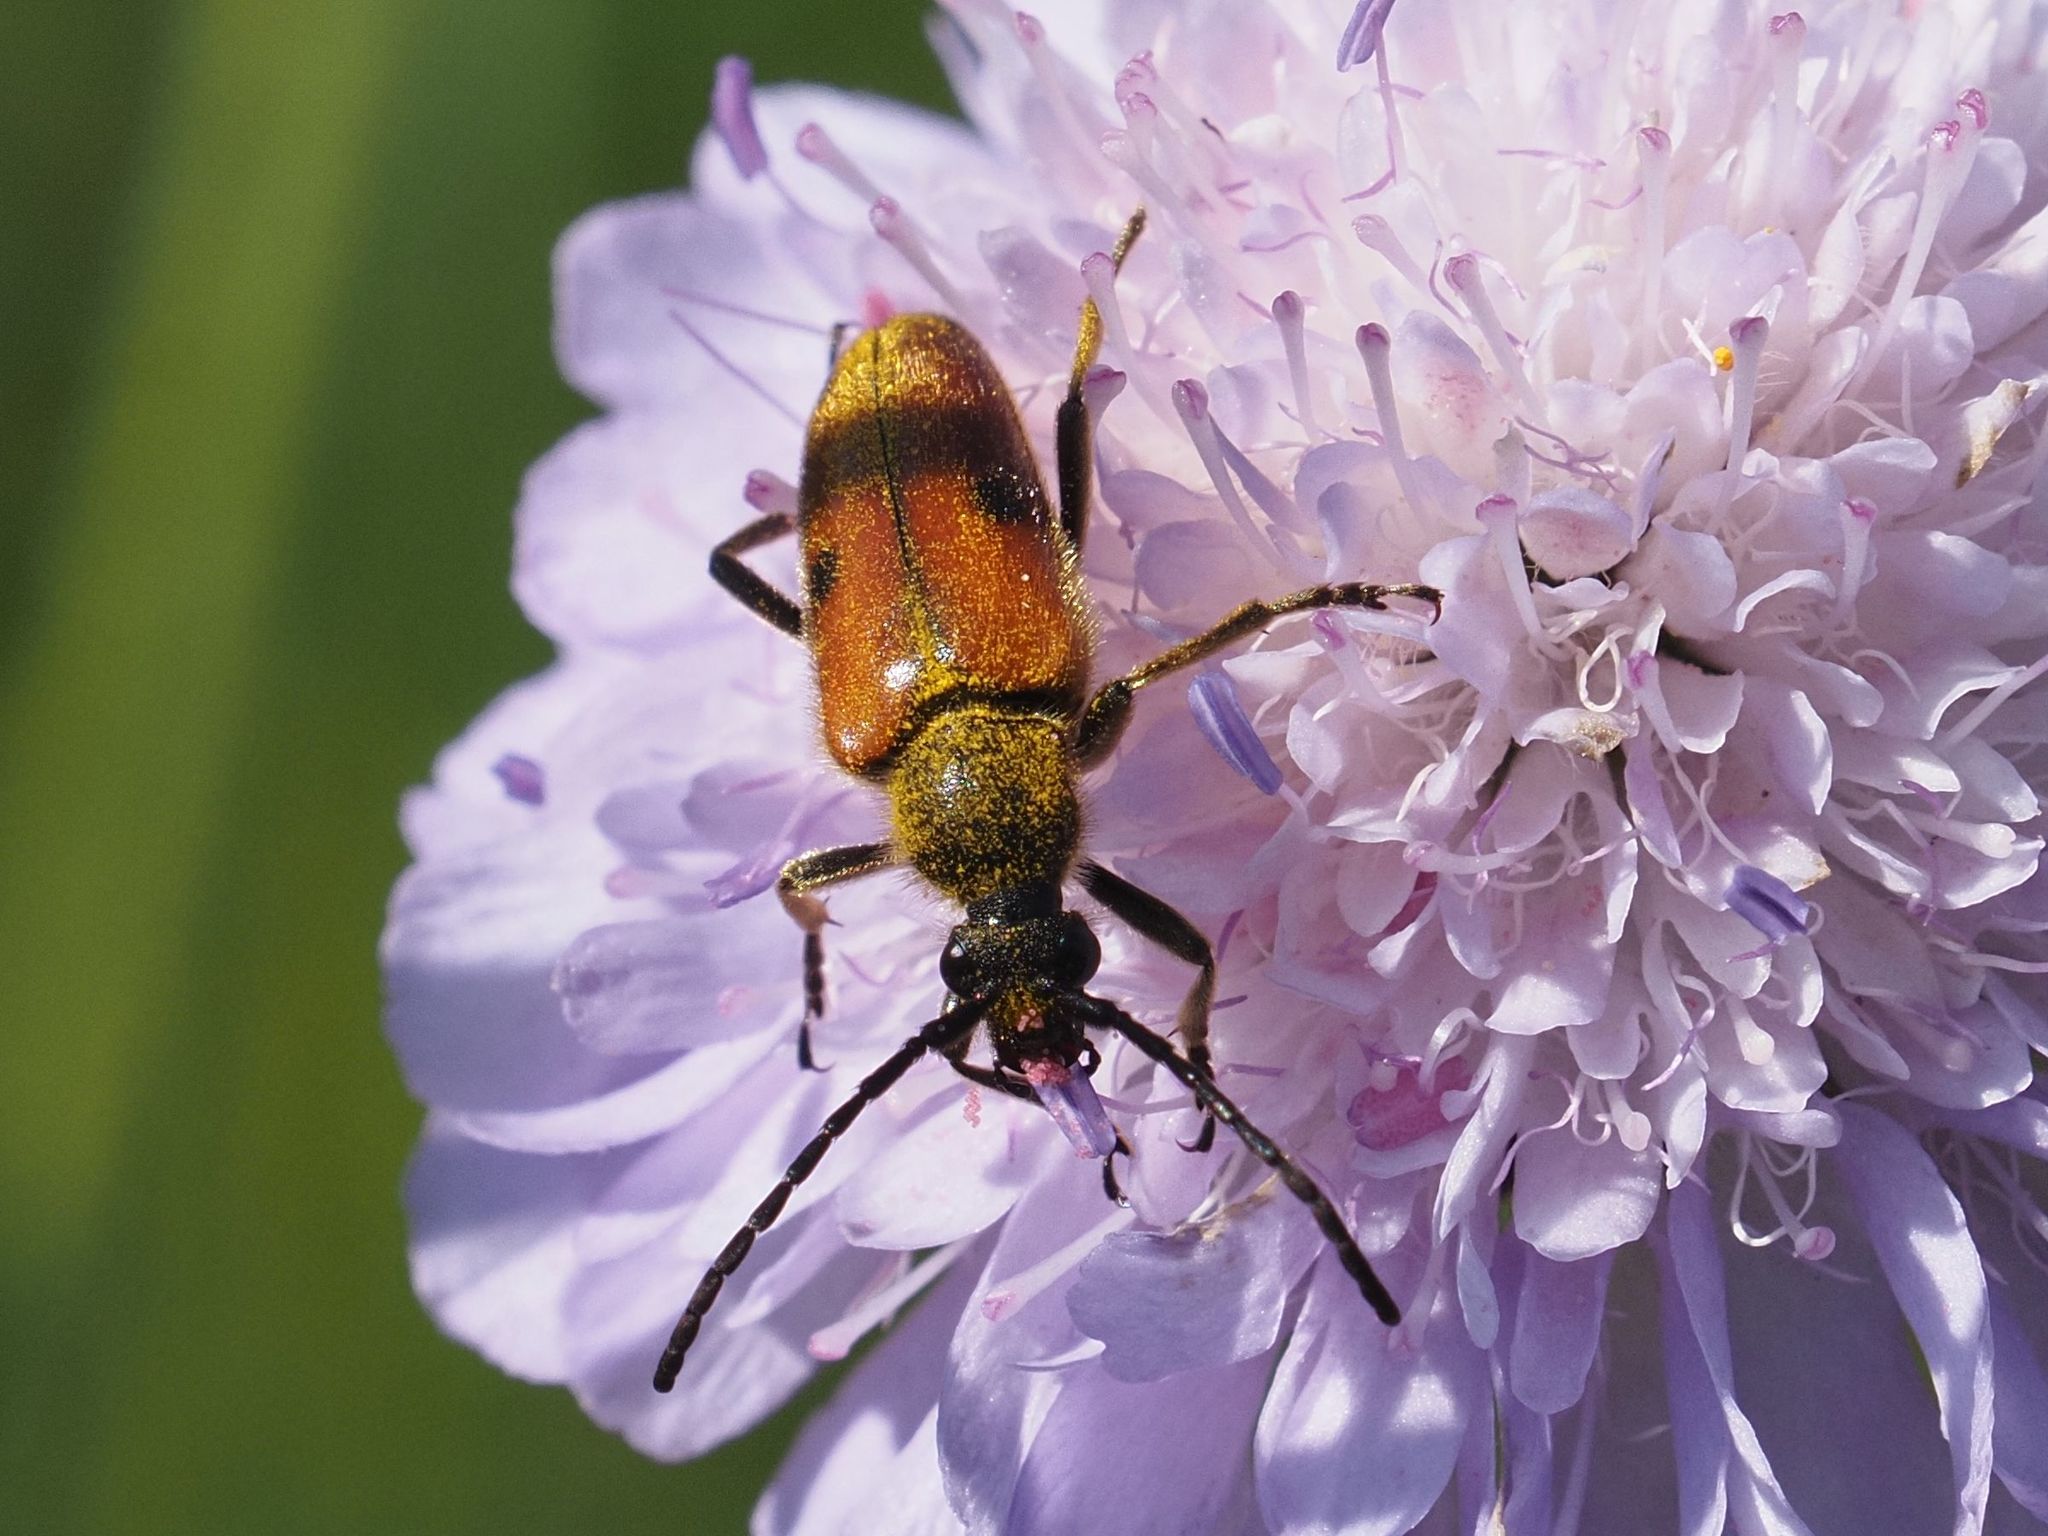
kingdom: Animalia
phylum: Arthropoda
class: Insecta
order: Coleoptera
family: Cerambycidae
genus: Vadonia
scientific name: Vadonia unipunctata
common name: Long-horned beetle
